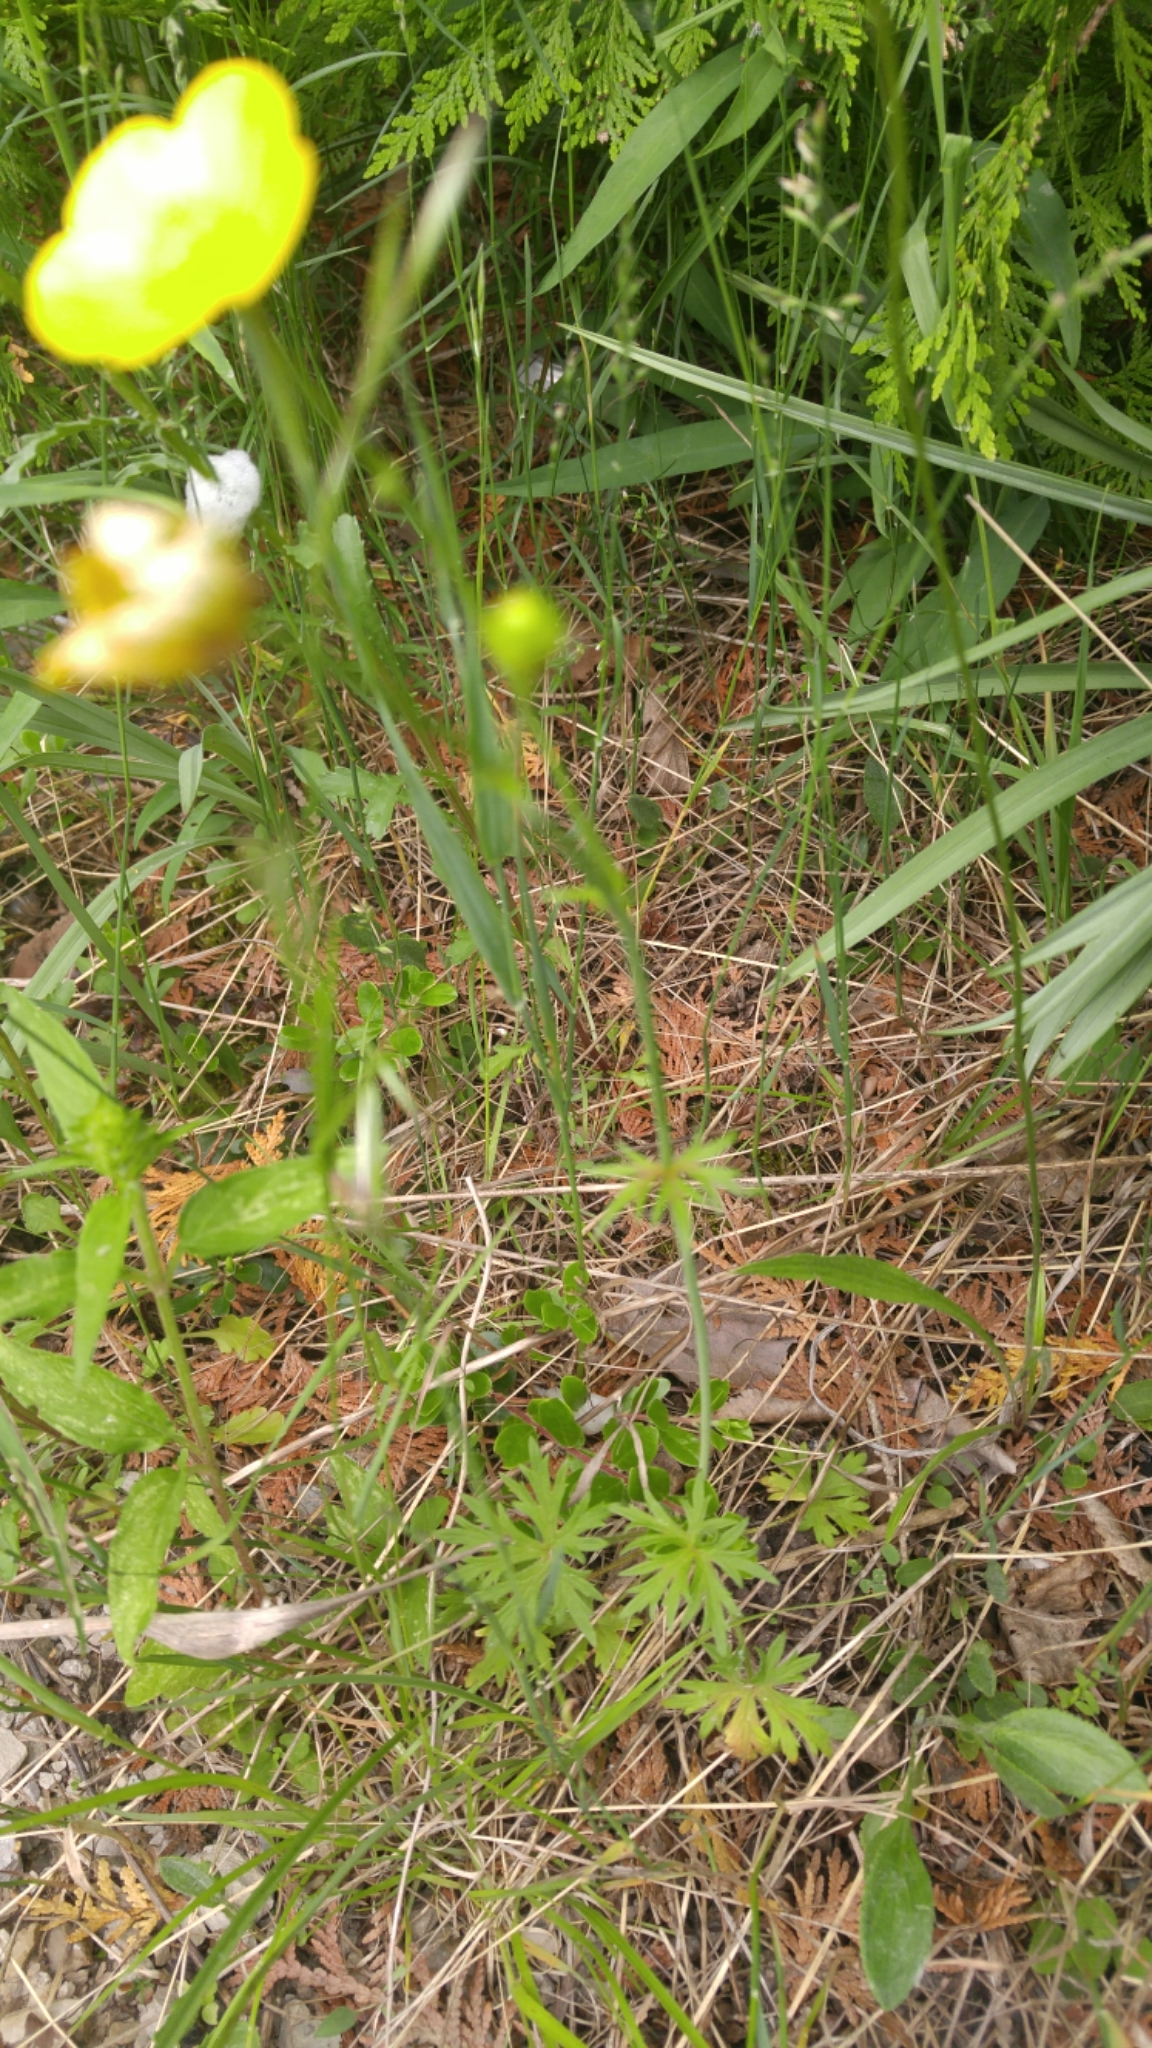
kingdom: Plantae
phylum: Tracheophyta
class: Magnoliopsida
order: Ranunculales
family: Ranunculaceae
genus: Ranunculus
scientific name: Ranunculus acris
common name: Meadow buttercup
